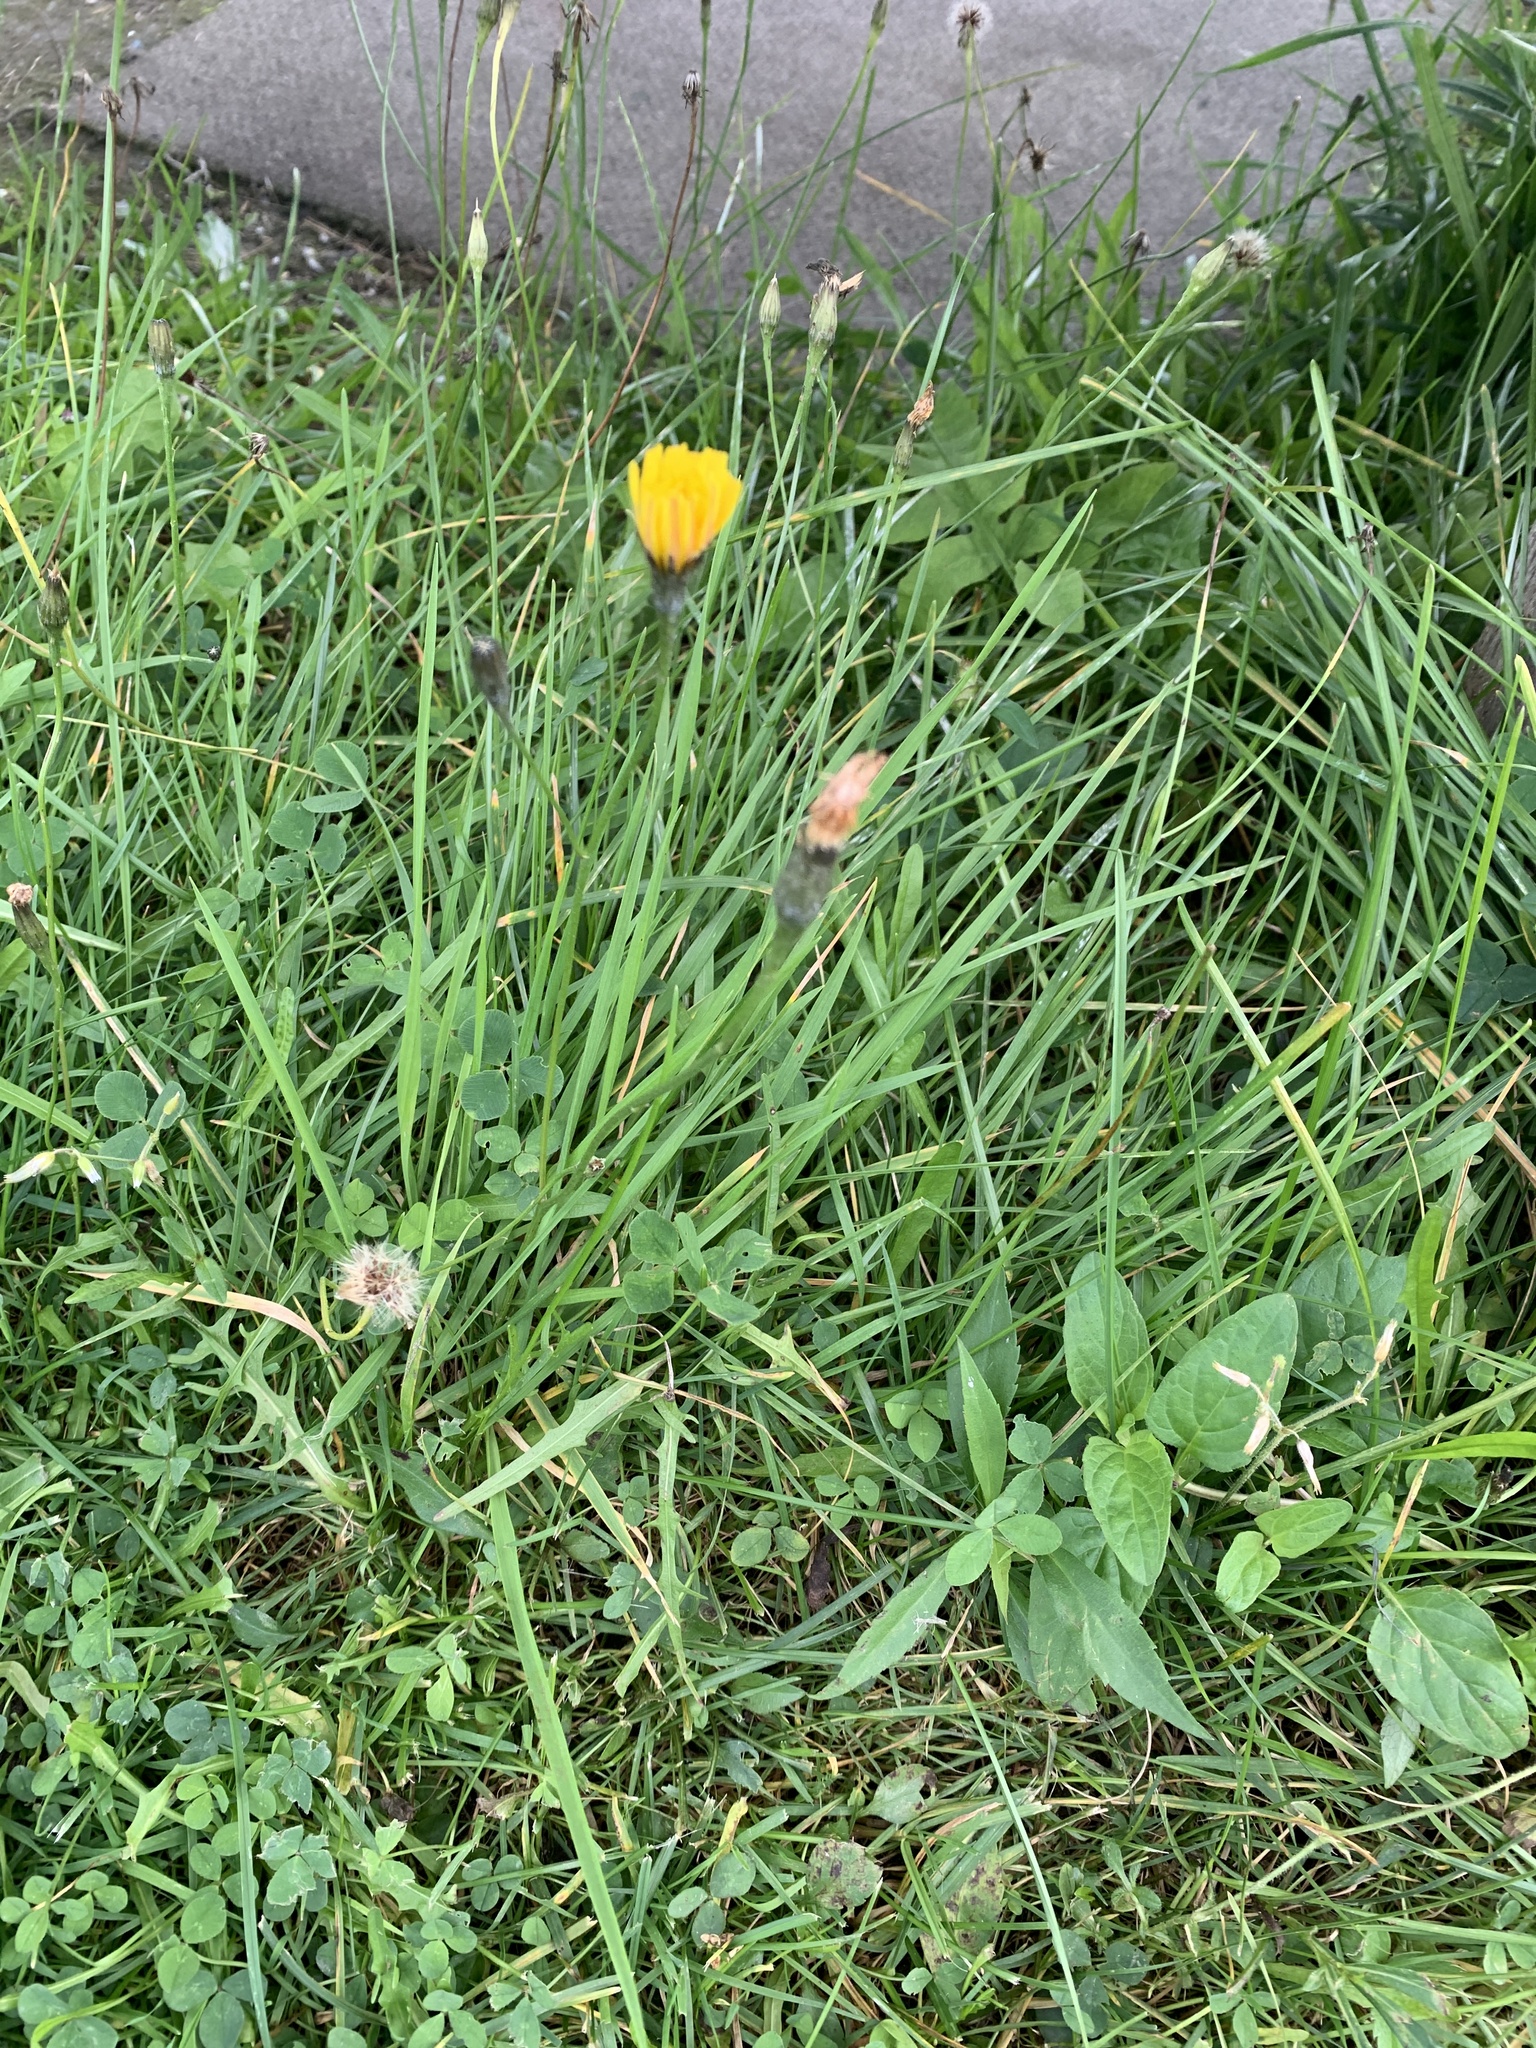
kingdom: Plantae
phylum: Tracheophyta
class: Magnoliopsida
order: Asterales
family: Asteraceae
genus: Scorzoneroides
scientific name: Scorzoneroides autumnalis
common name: Autumn hawkbit
